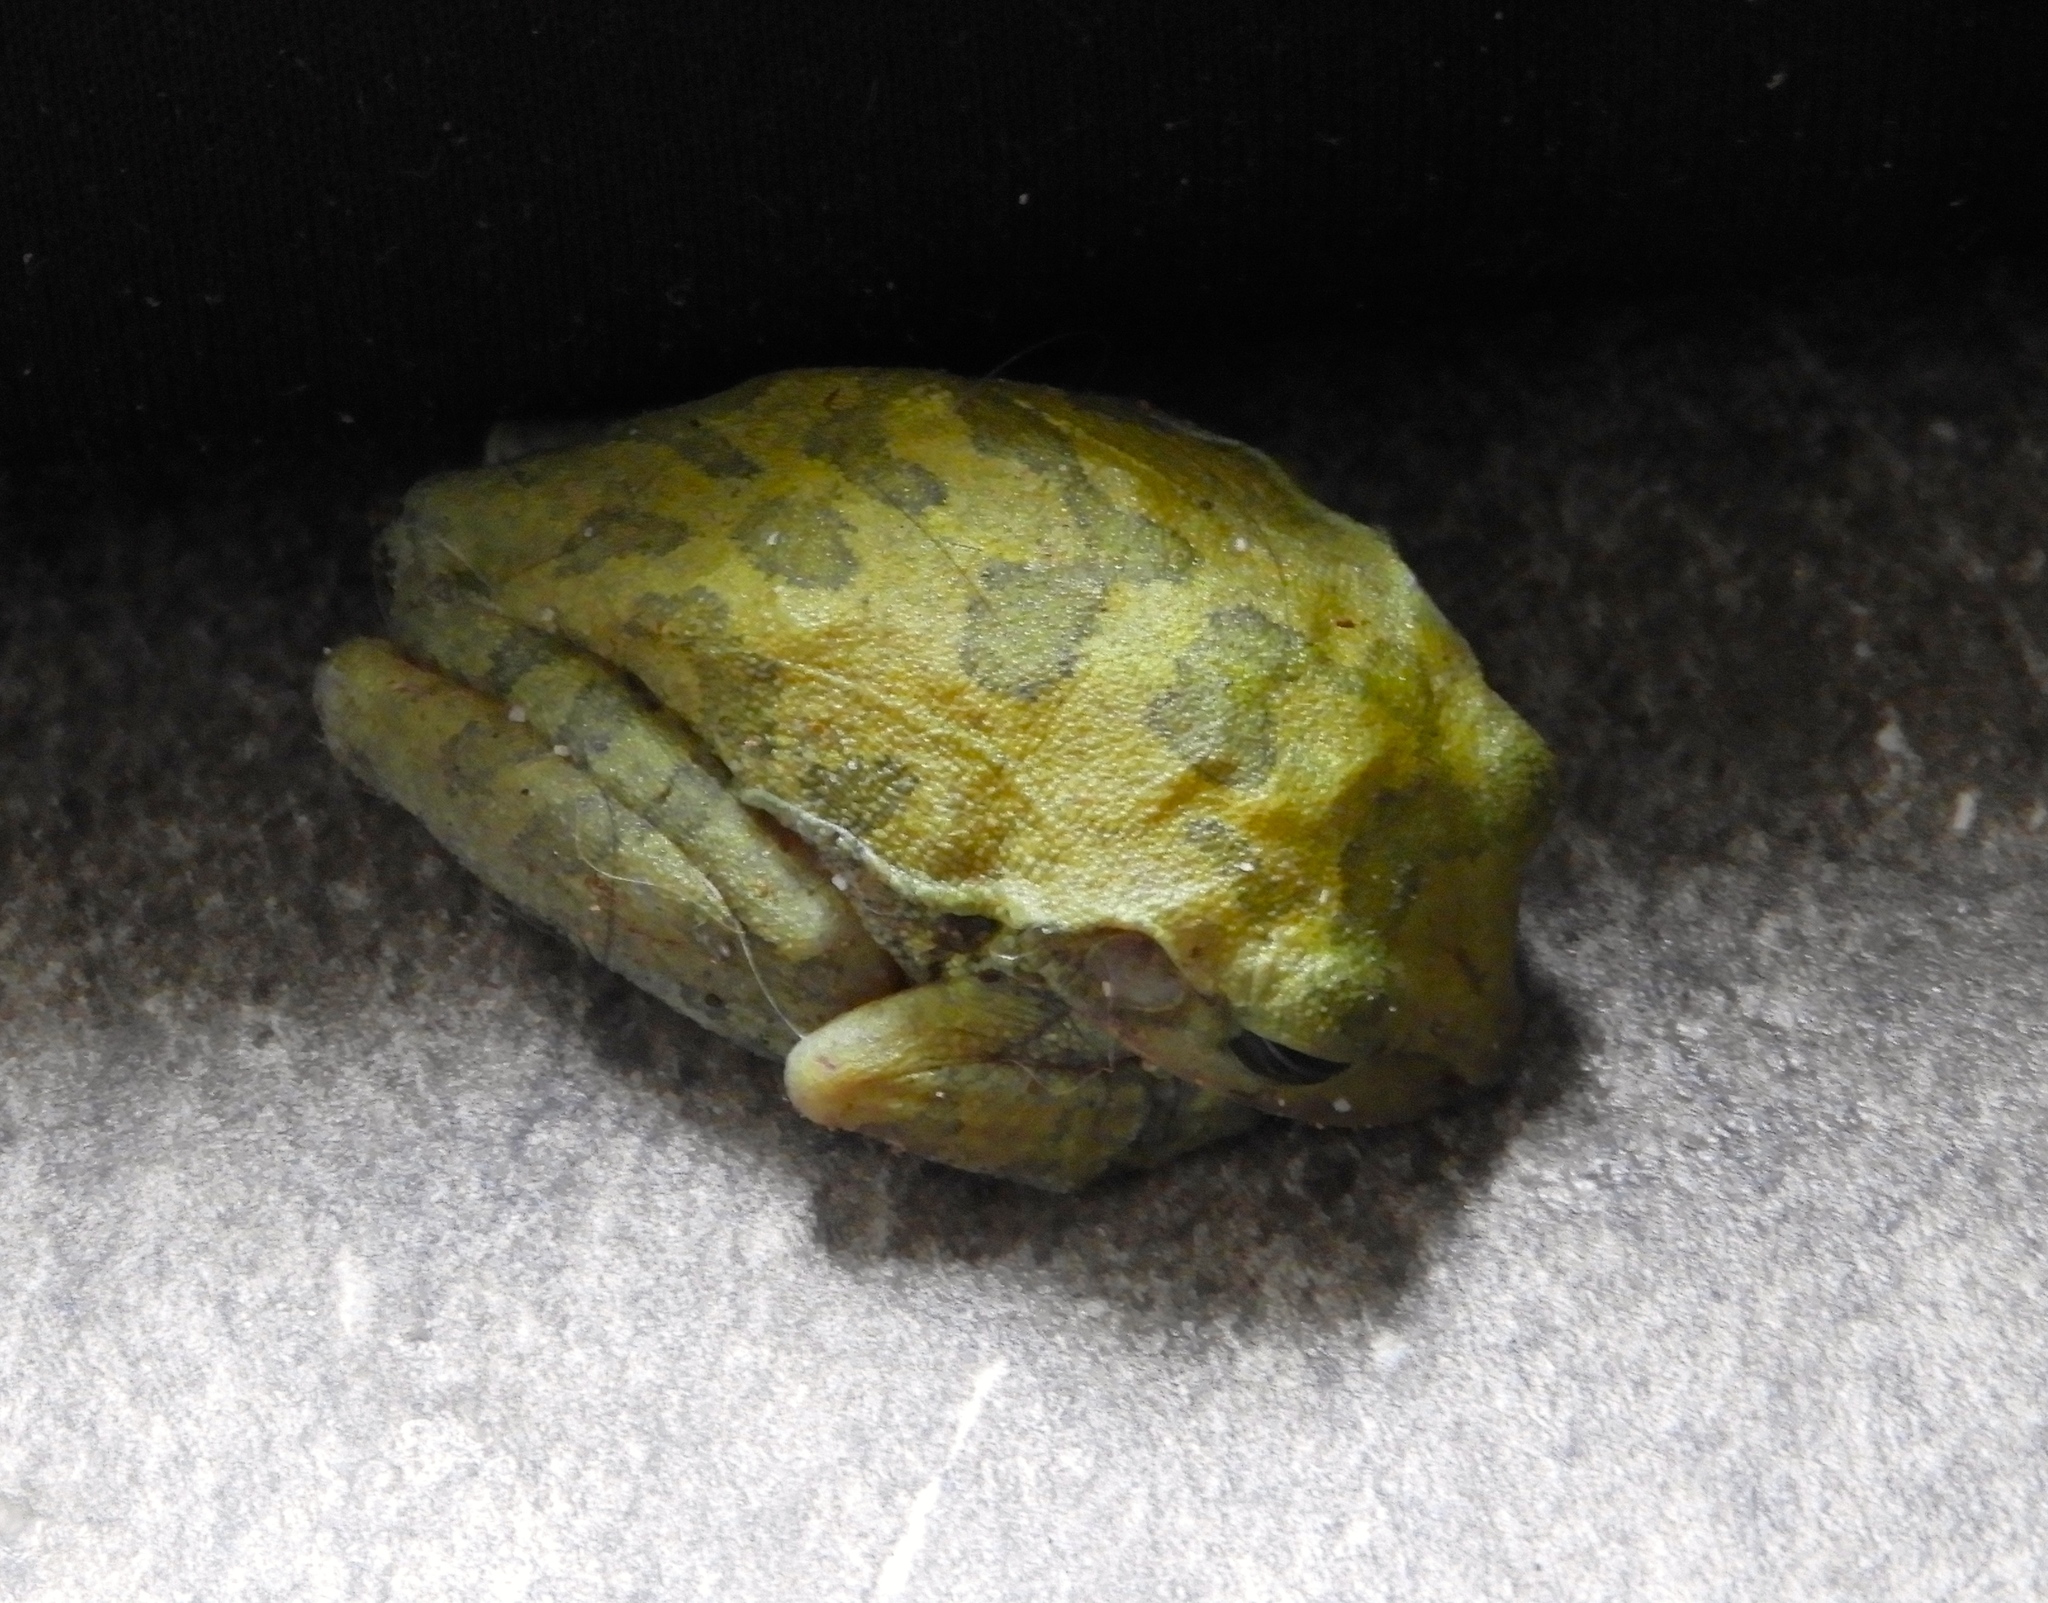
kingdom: Animalia
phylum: Chordata
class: Amphibia
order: Anura
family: Hylidae
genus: Smilisca
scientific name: Smilisca baudinii
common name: Mexican smilisca
